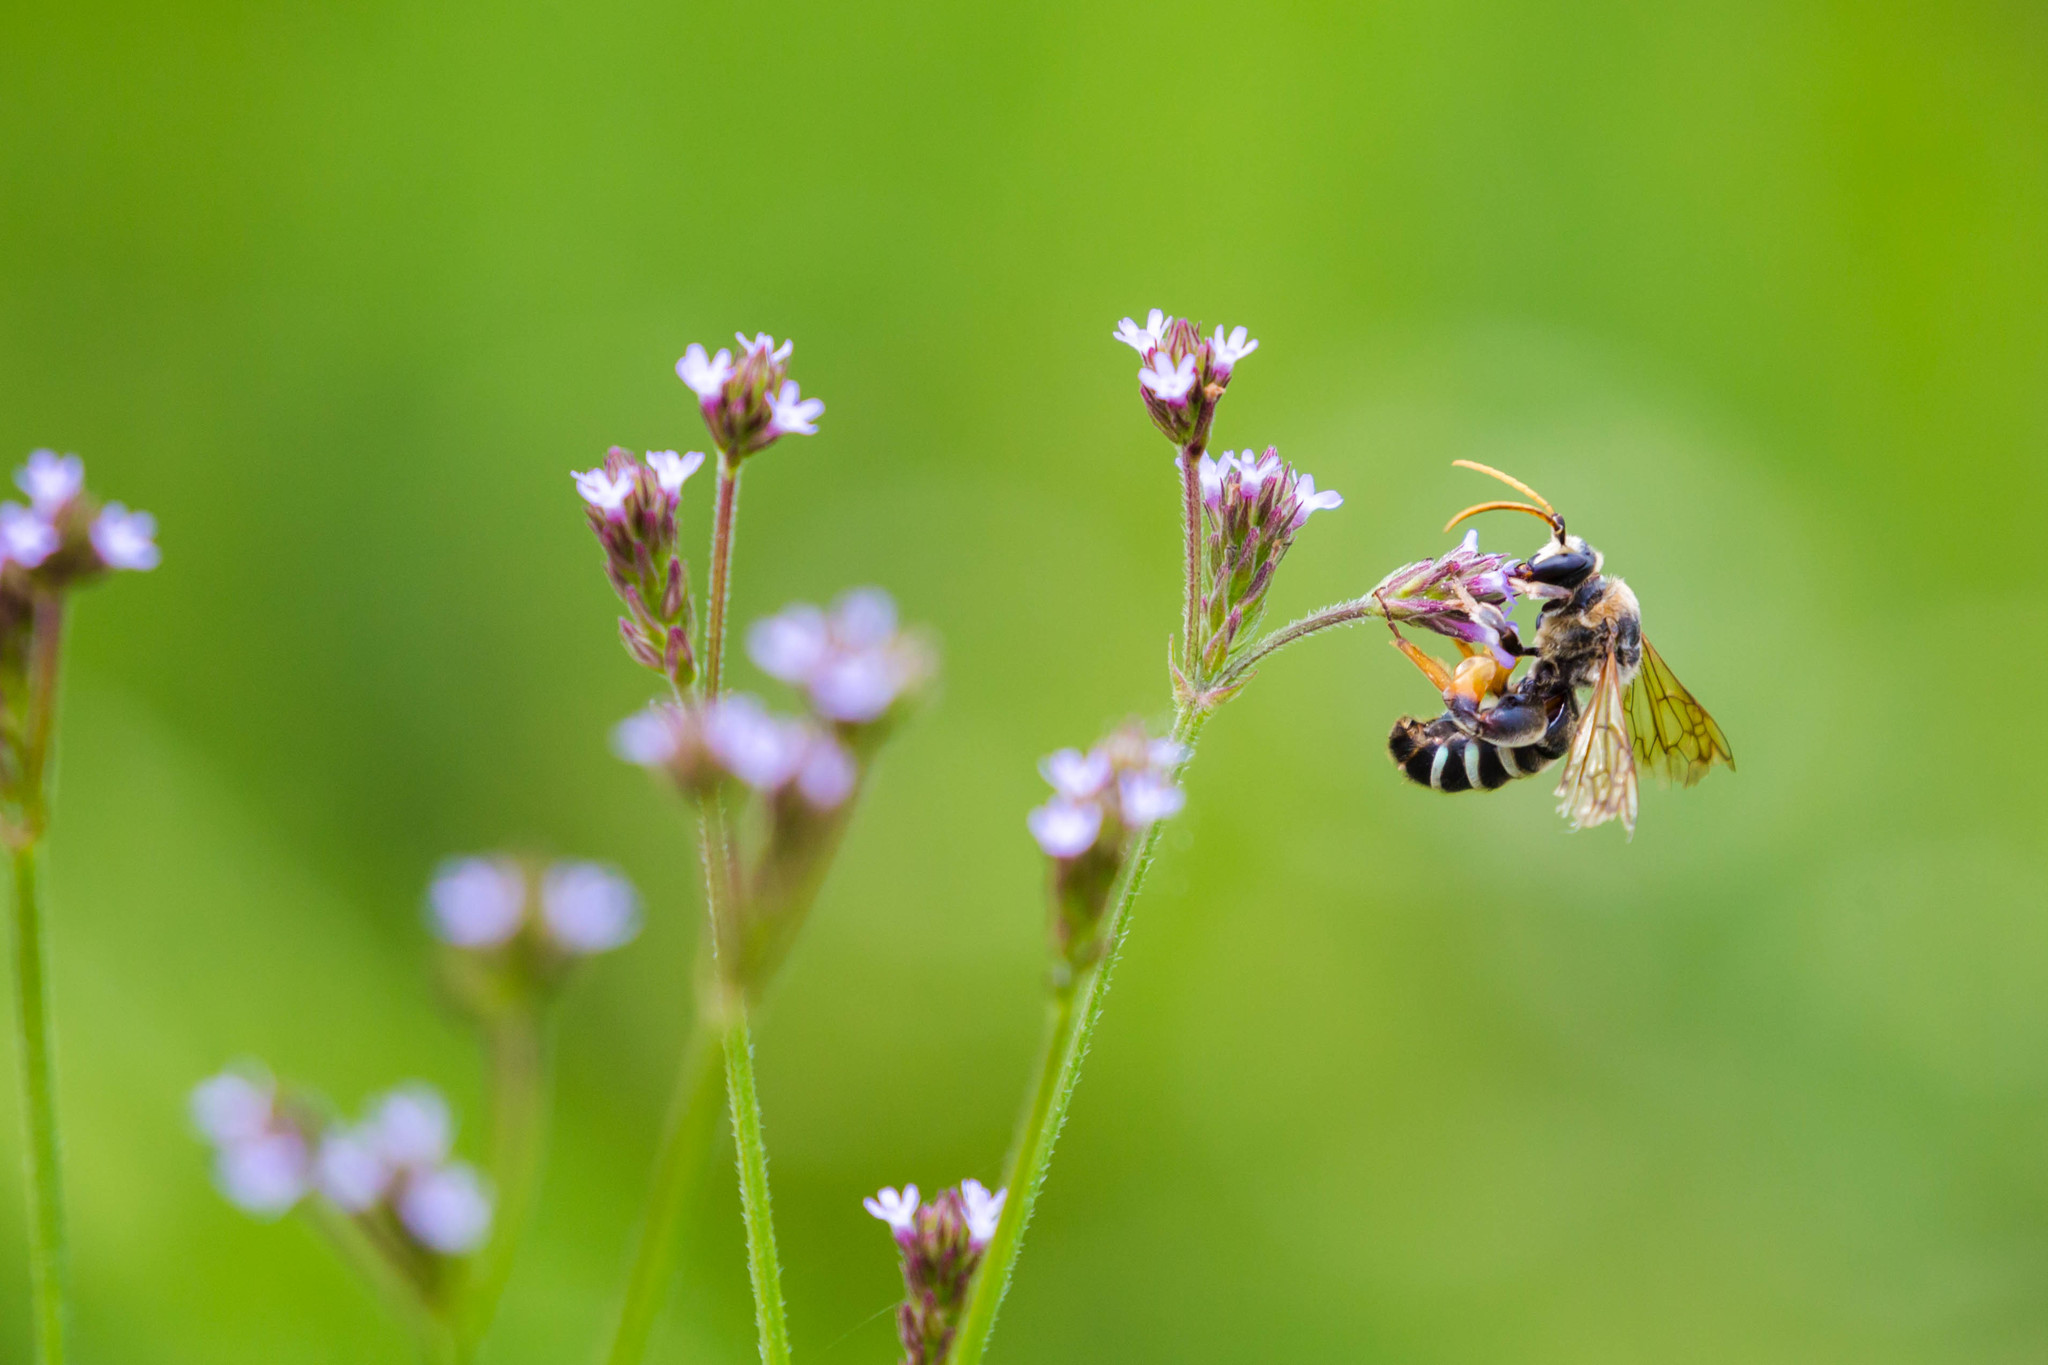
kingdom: Animalia
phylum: Arthropoda
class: Insecta
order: Hymenoptera
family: Halictidae
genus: Nomia
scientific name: Nomia nortoni
